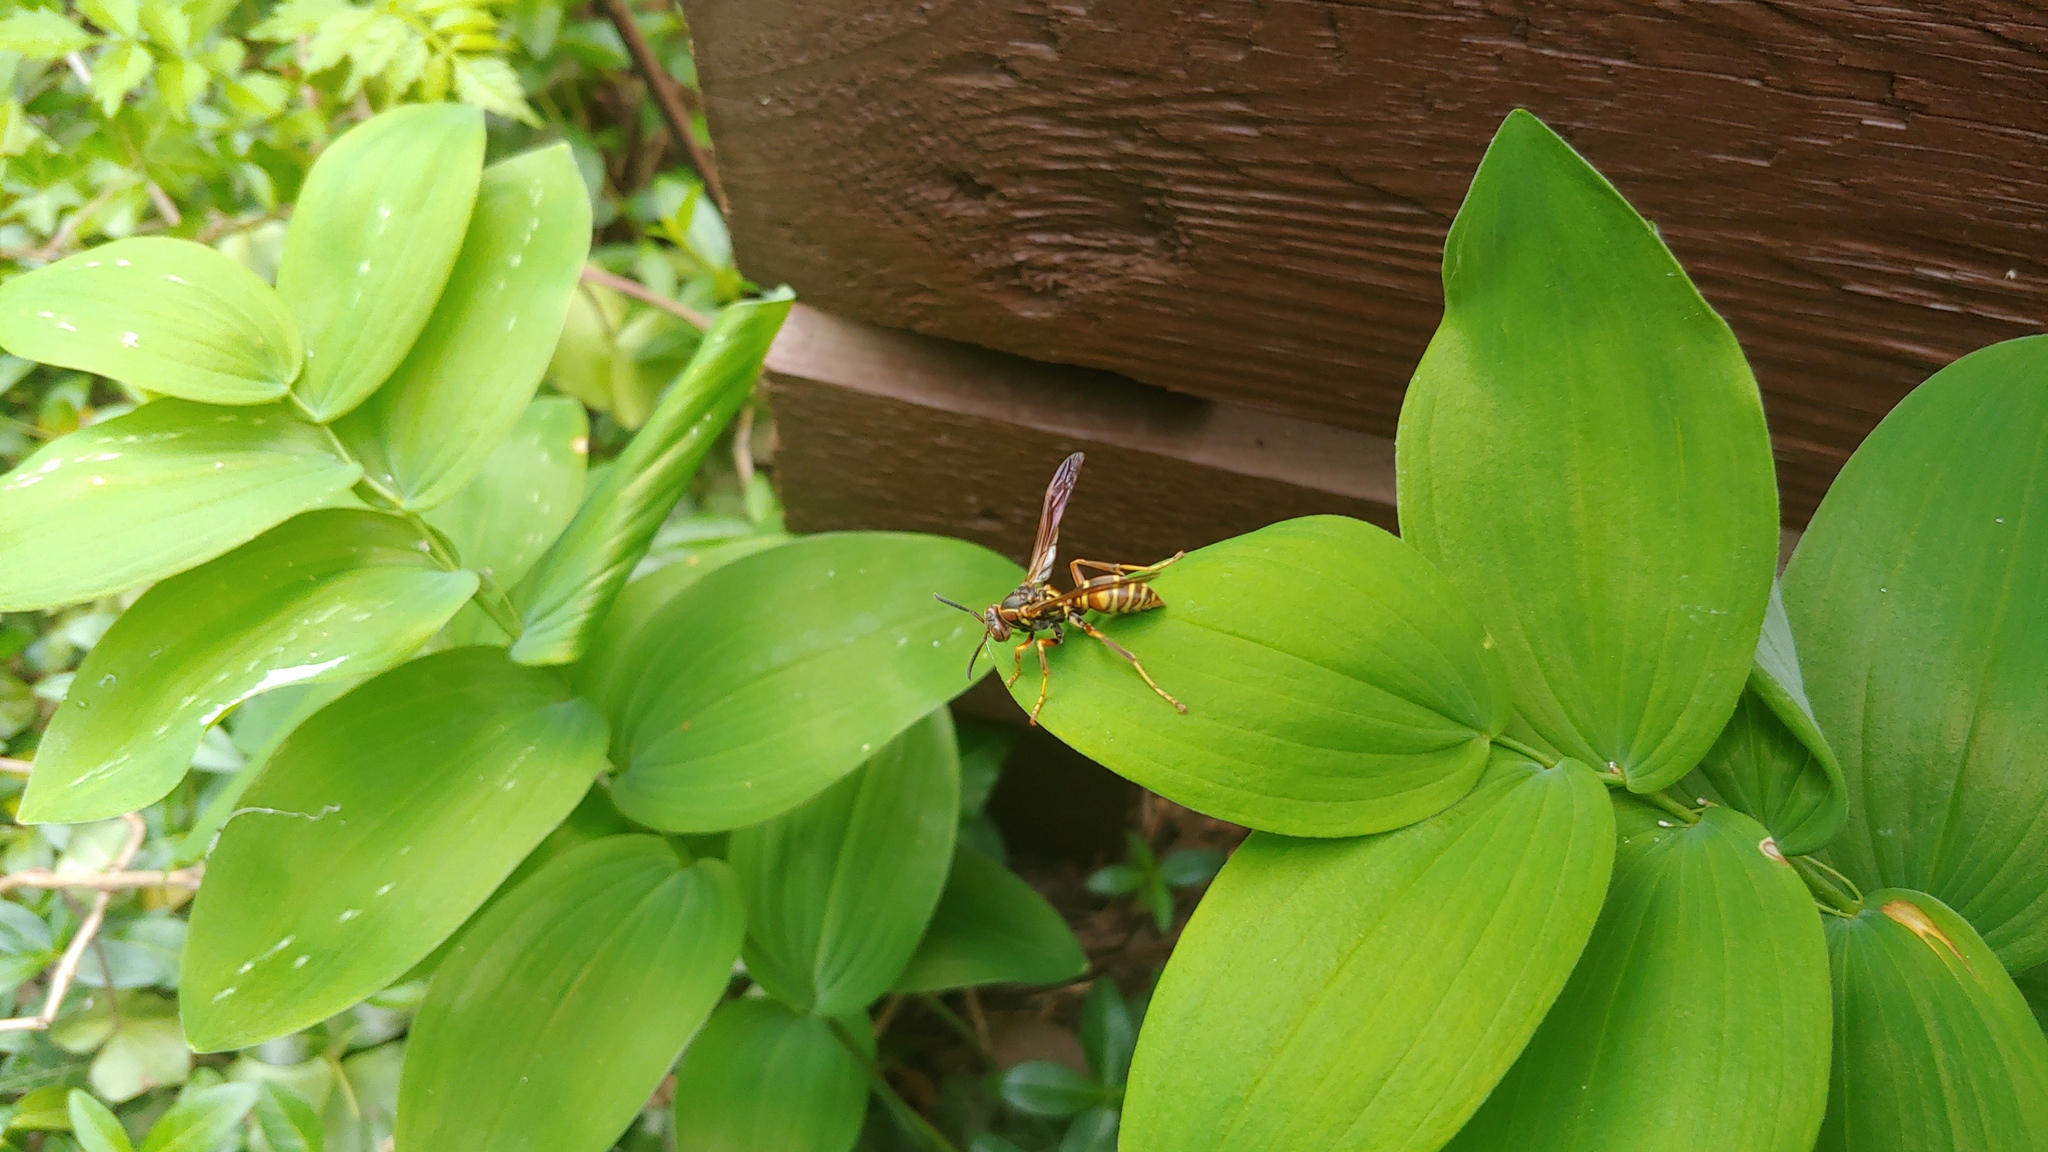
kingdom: Animalia
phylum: Arthropoda
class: Insecta
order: Hymenoptera
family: Eumenidae
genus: Polistes
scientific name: Polistes fuscatus
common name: Dark paper wasp
